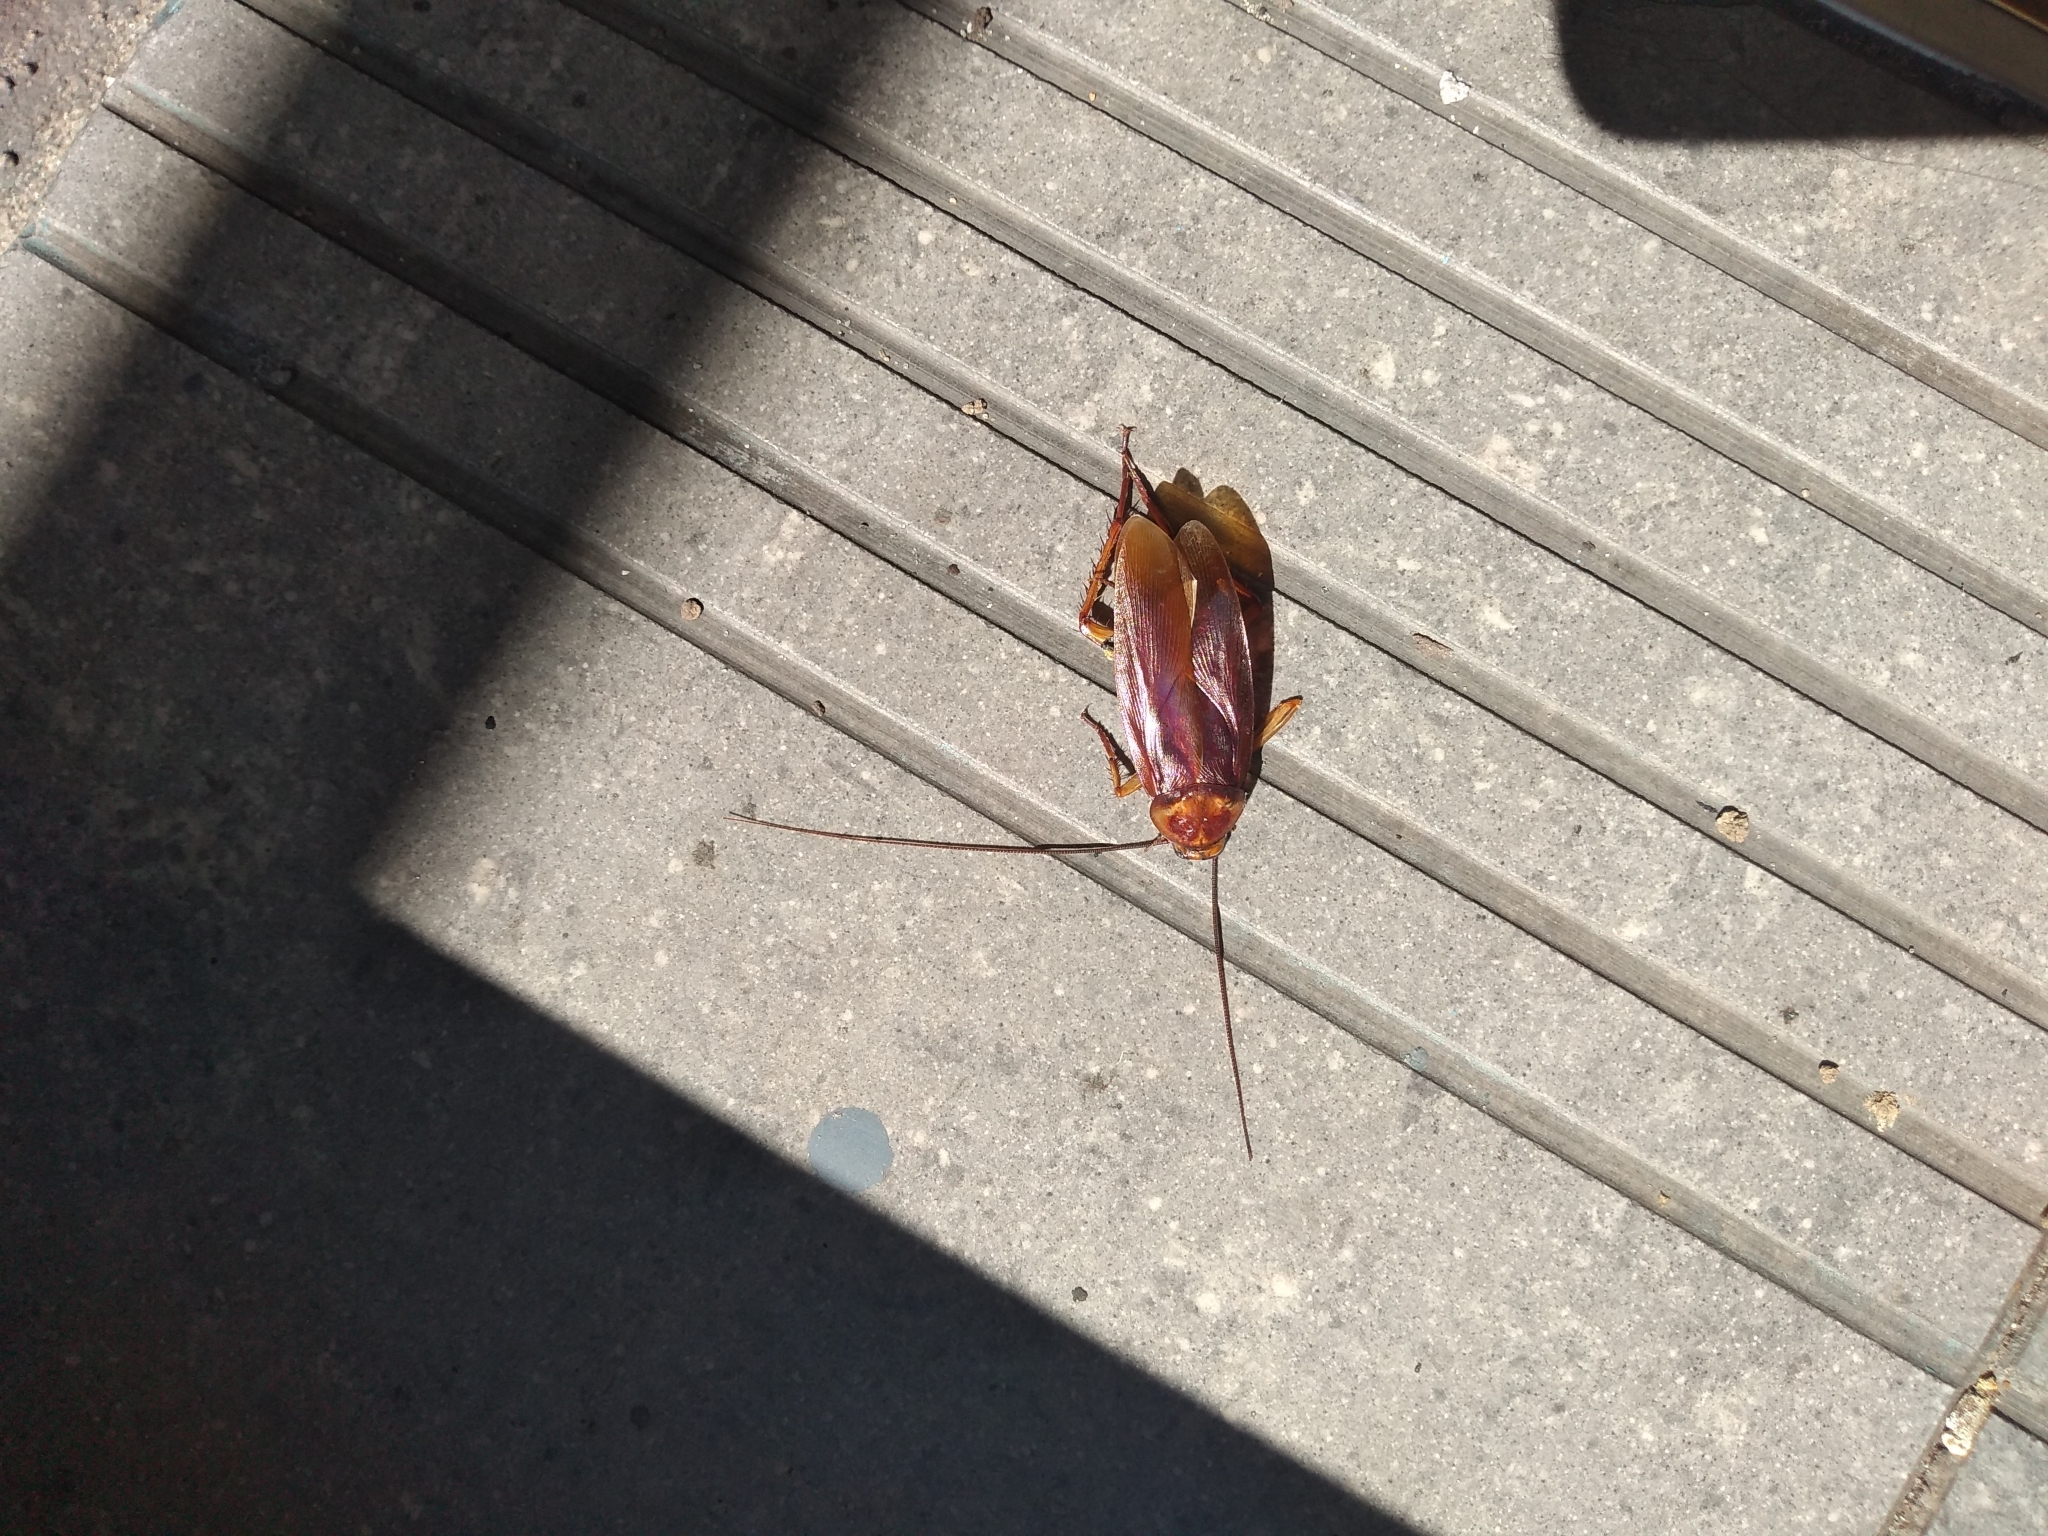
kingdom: Animalia
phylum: Arthropoda
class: Insecta
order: Blattodea
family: Blattidae
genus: Periplaneta
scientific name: Periplaneta americana
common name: American cockroach
